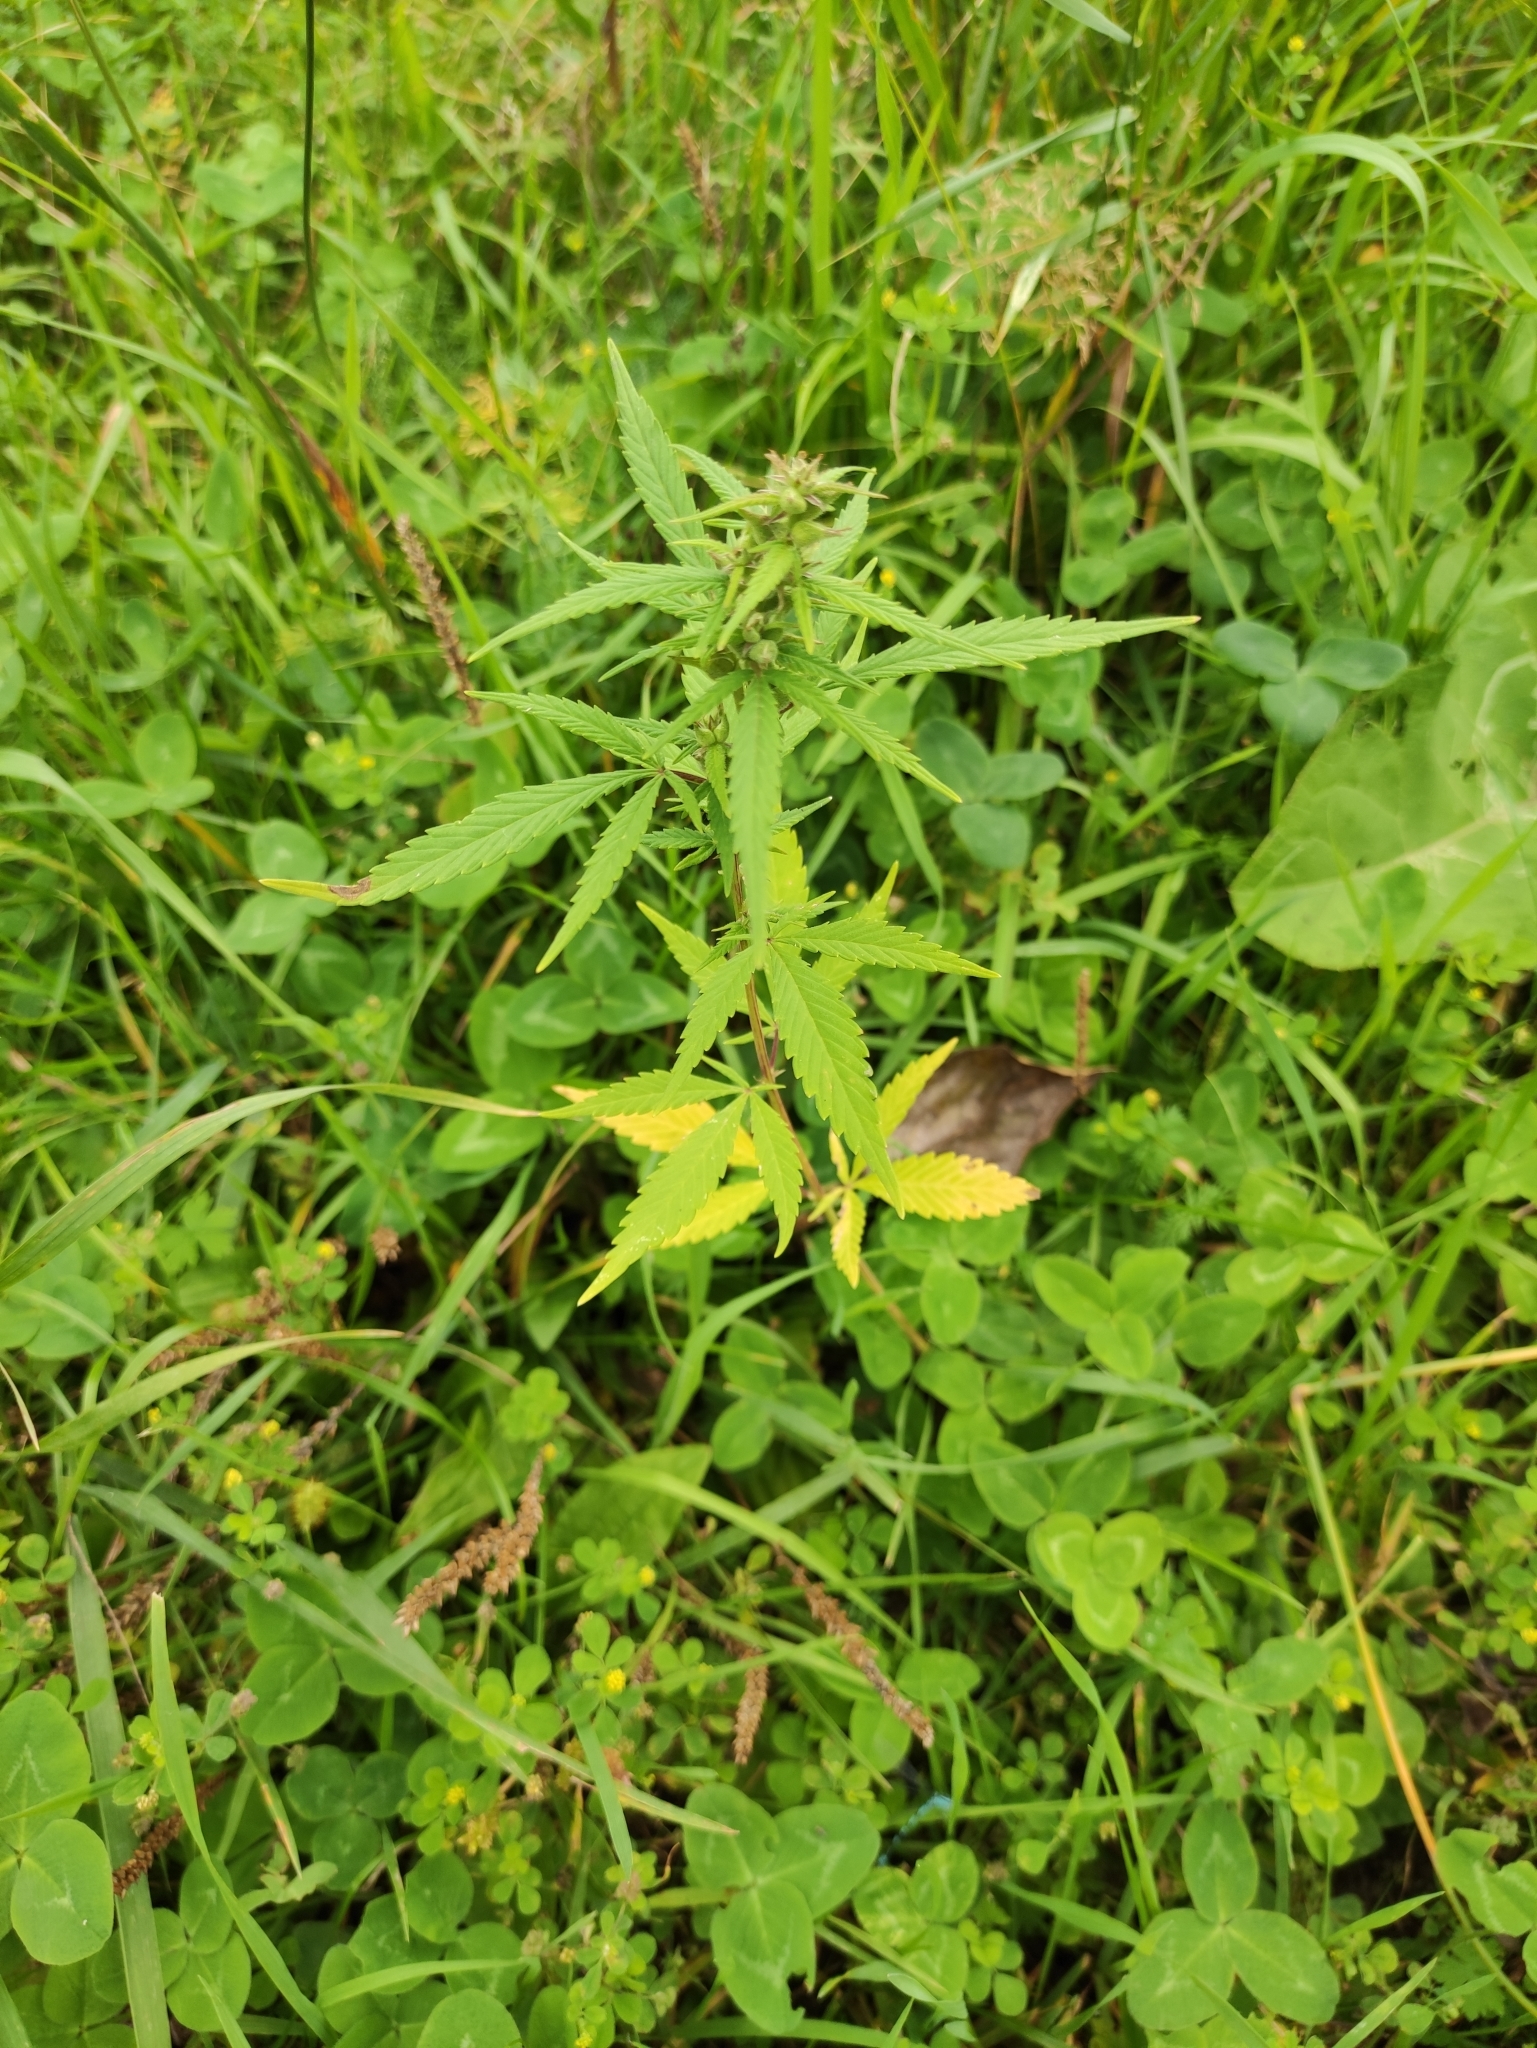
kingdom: Plantae
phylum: Tracheophyta
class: Magnoliopsida
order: Rosales
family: Cannabaceae
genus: Cannabis
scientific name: Cannabis sativa
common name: Hemp
